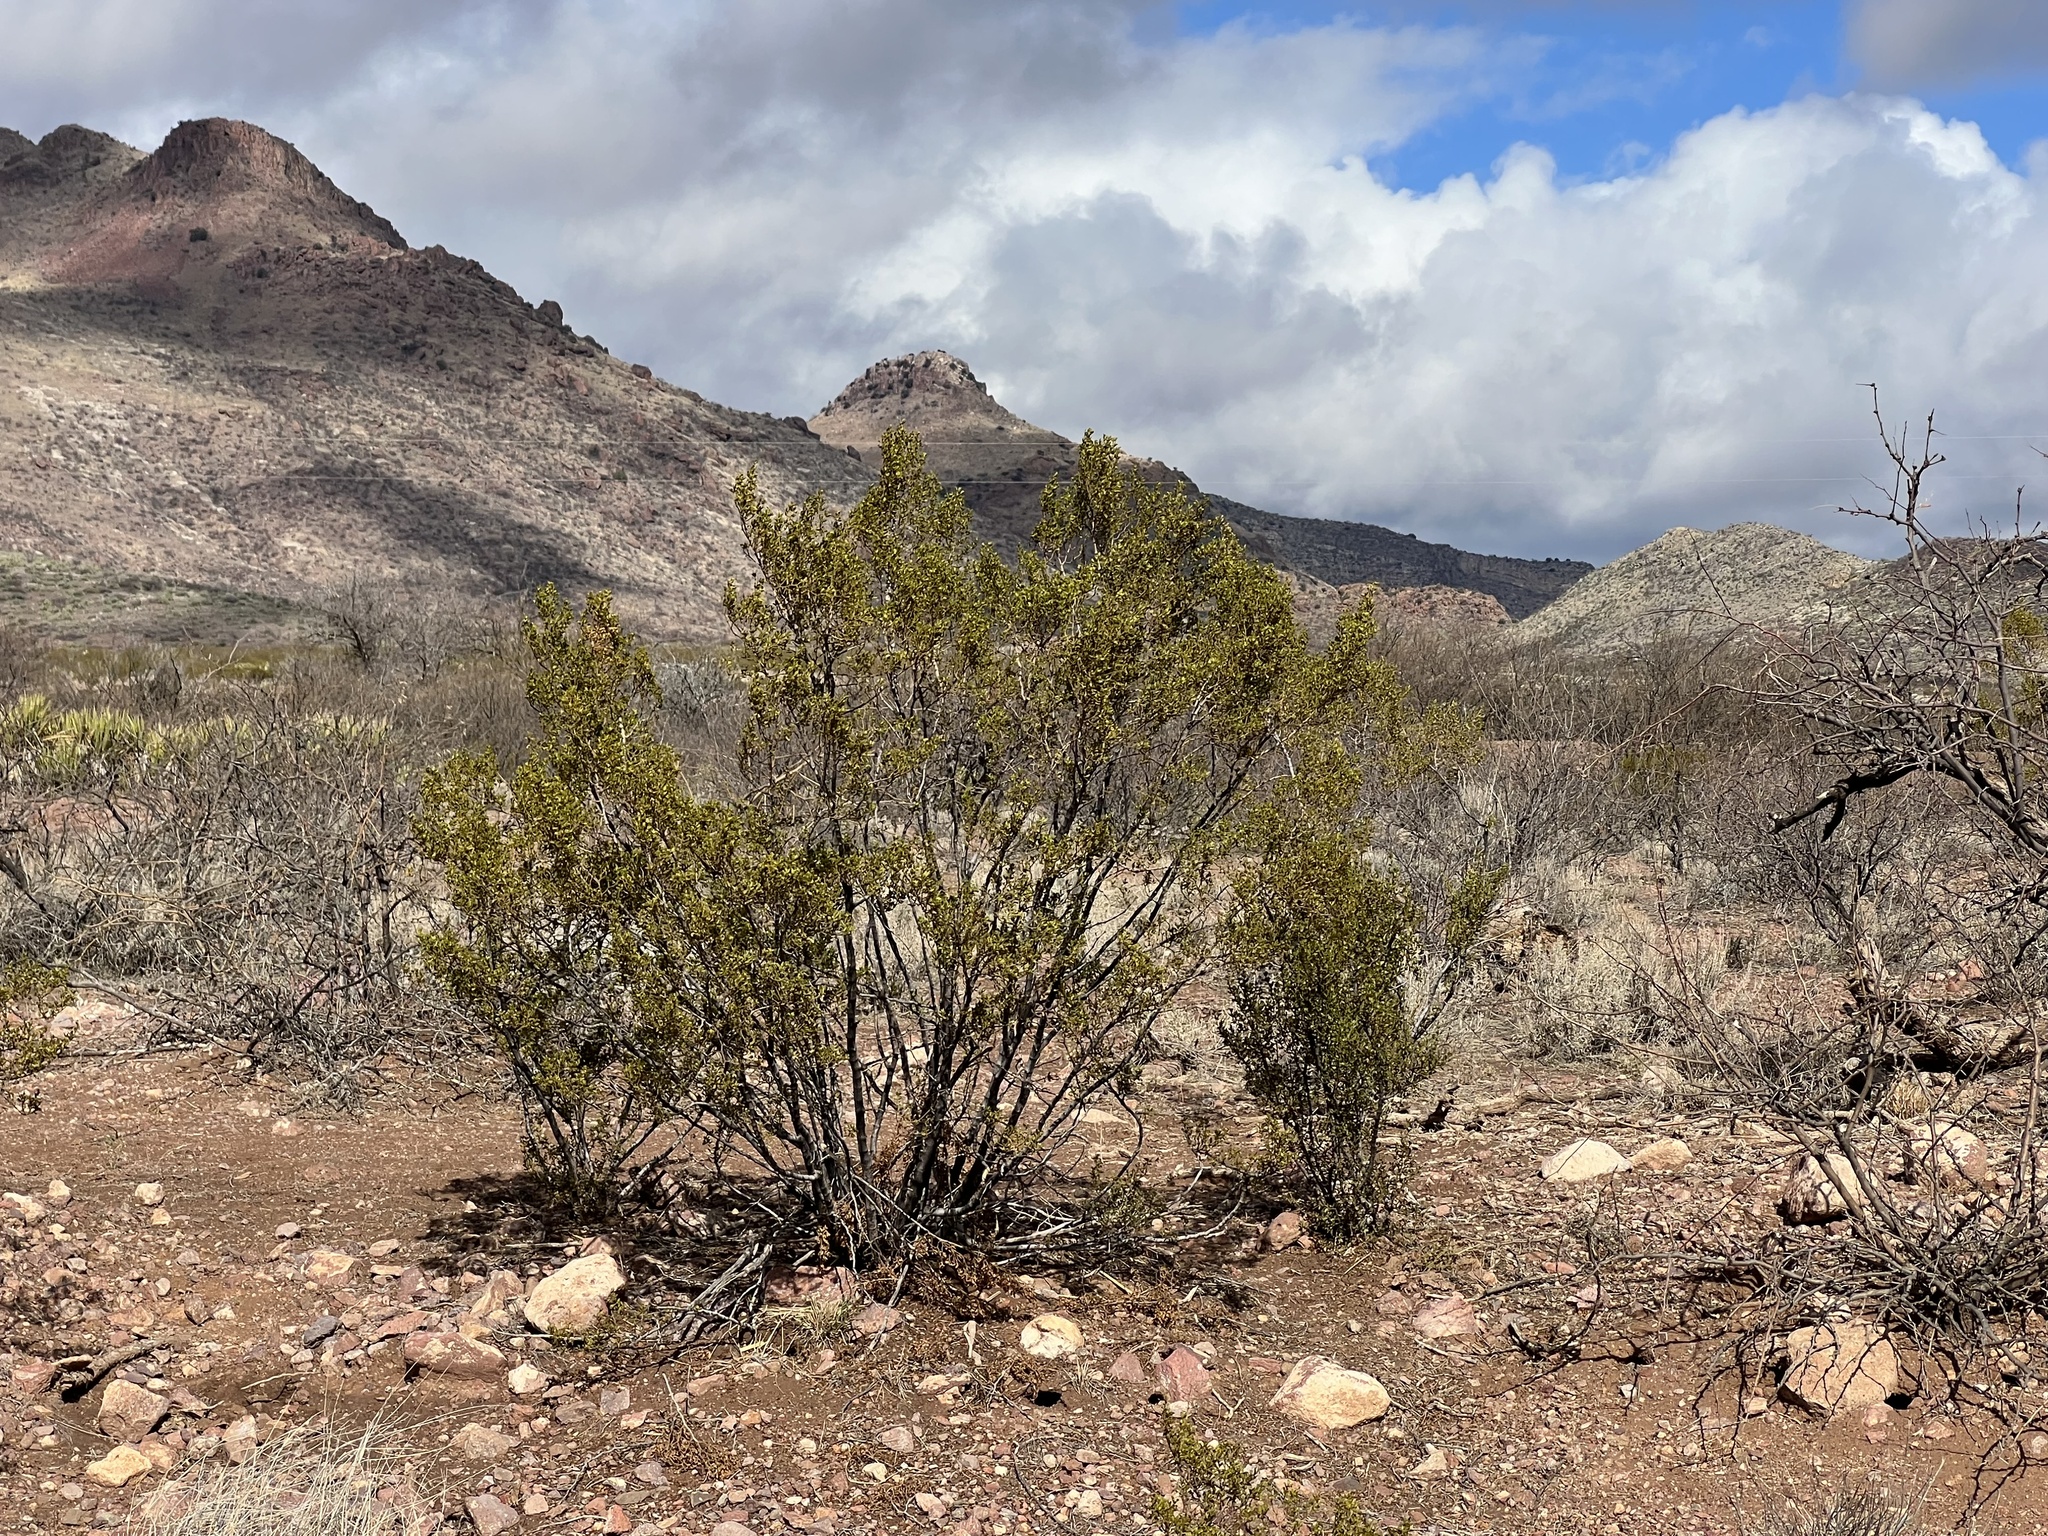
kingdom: Plantae
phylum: Tracheophyta
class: Magnoliopsida
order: Zygophyllales
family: Zygophyllaceae
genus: Larrea
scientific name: Larrea tridentata
